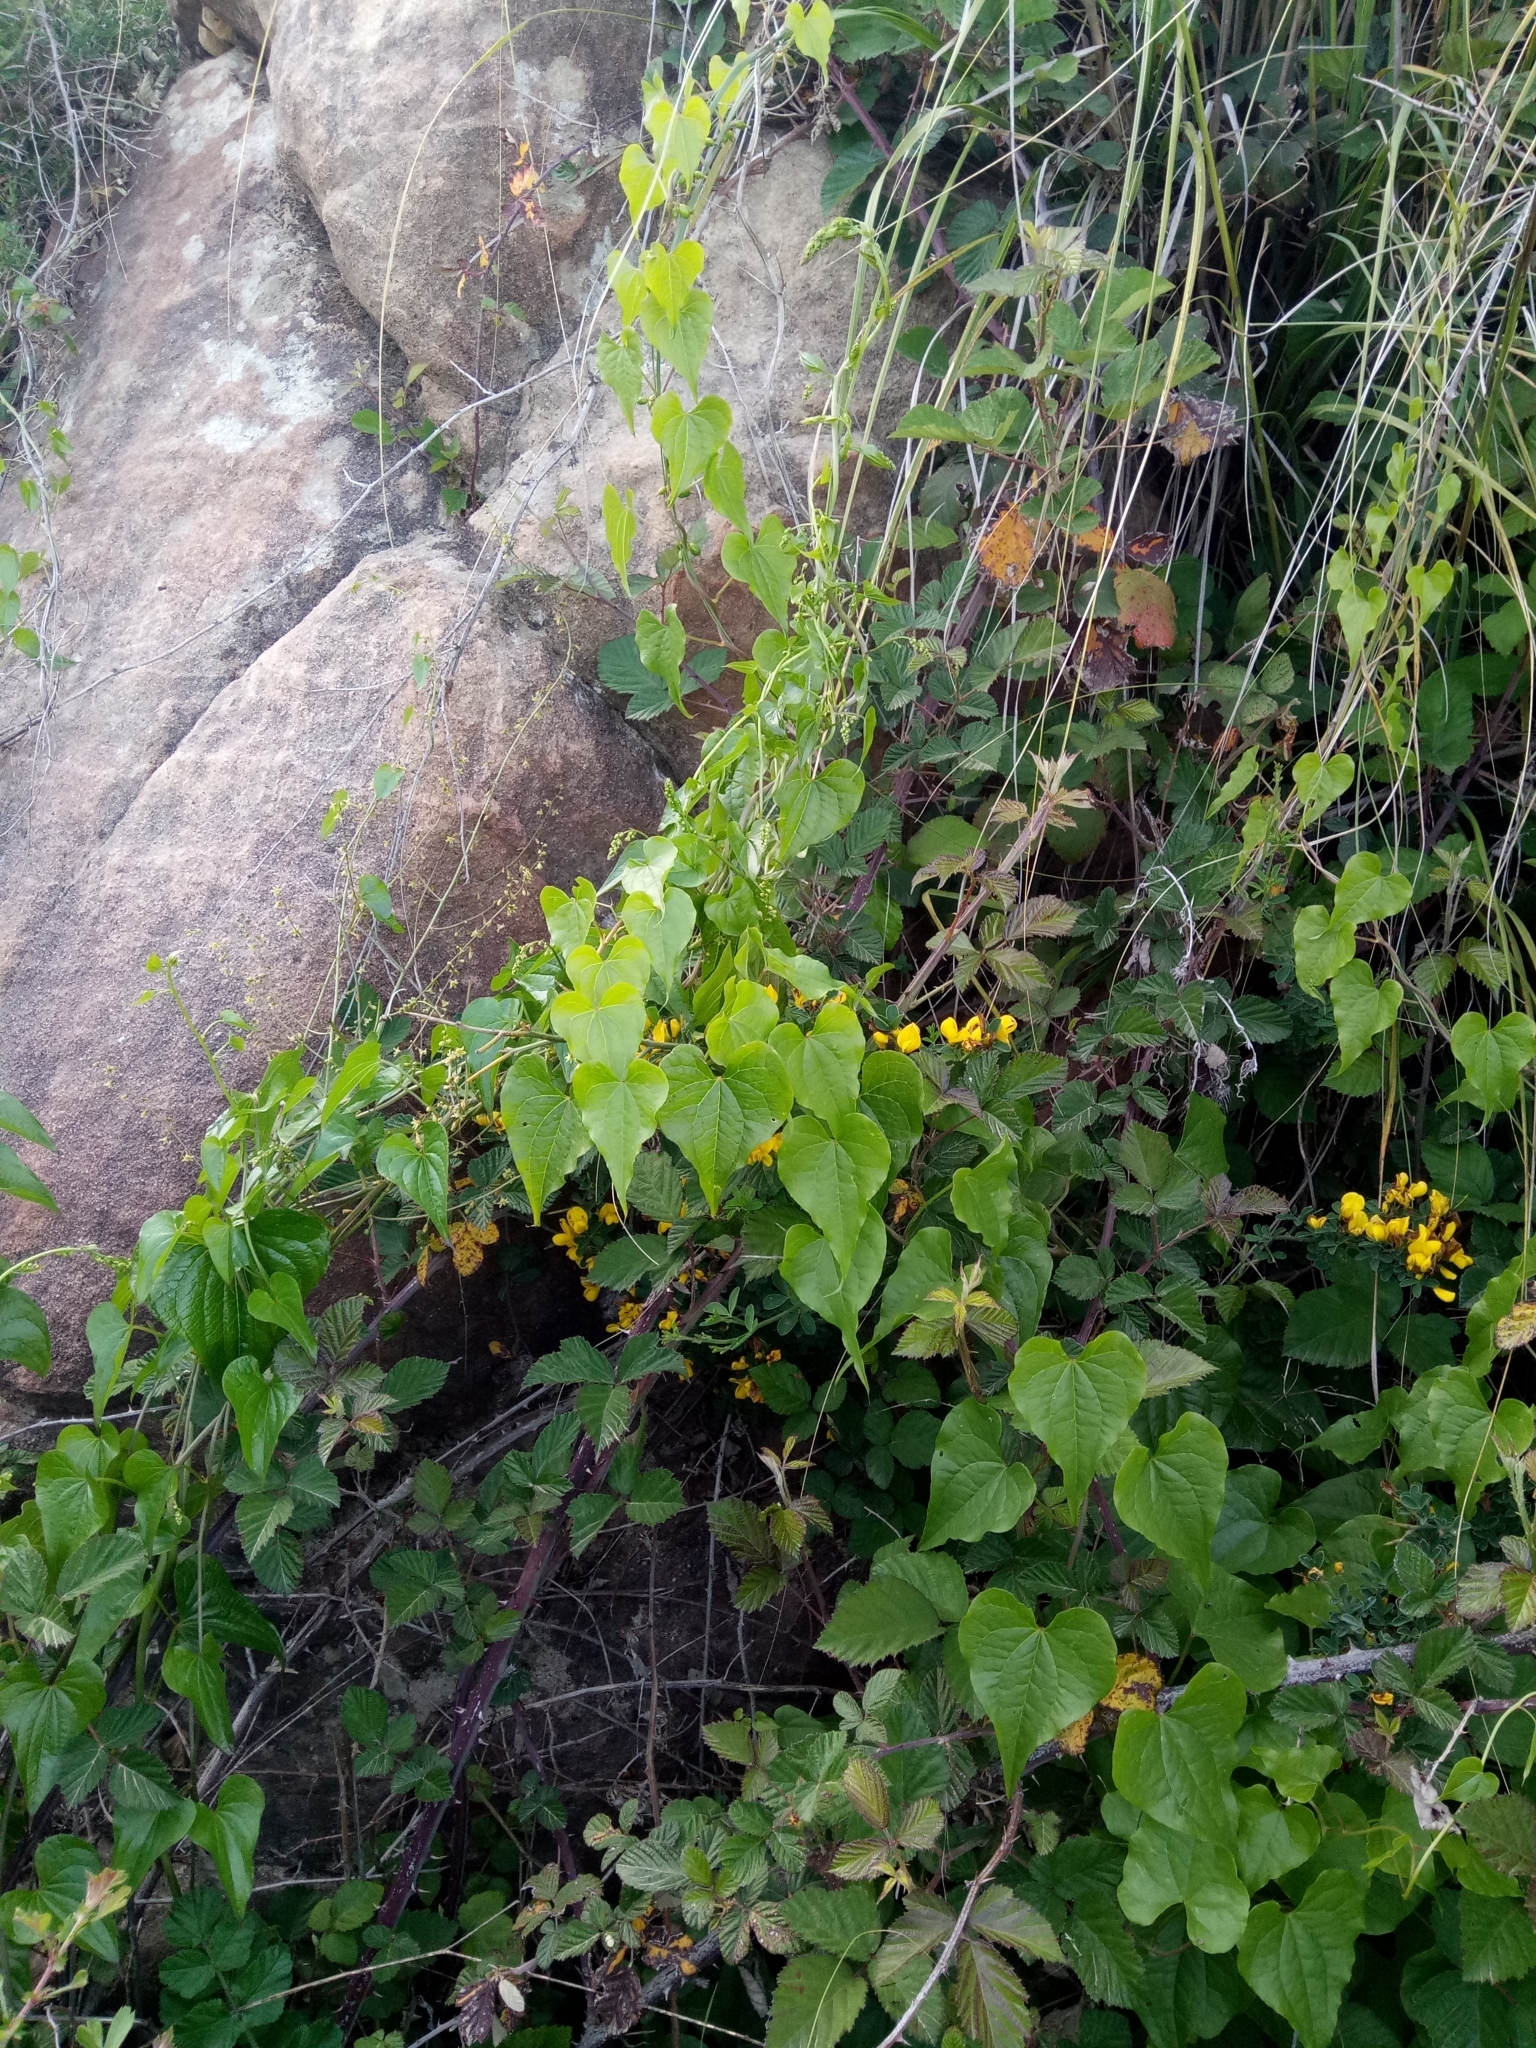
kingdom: Plantae
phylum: Tracheophyta
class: Liliopsida
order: Dioscoreales
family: Dioscoreaceae
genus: Dioscorea
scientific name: Dioscorea communis
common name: Black-bindweed
